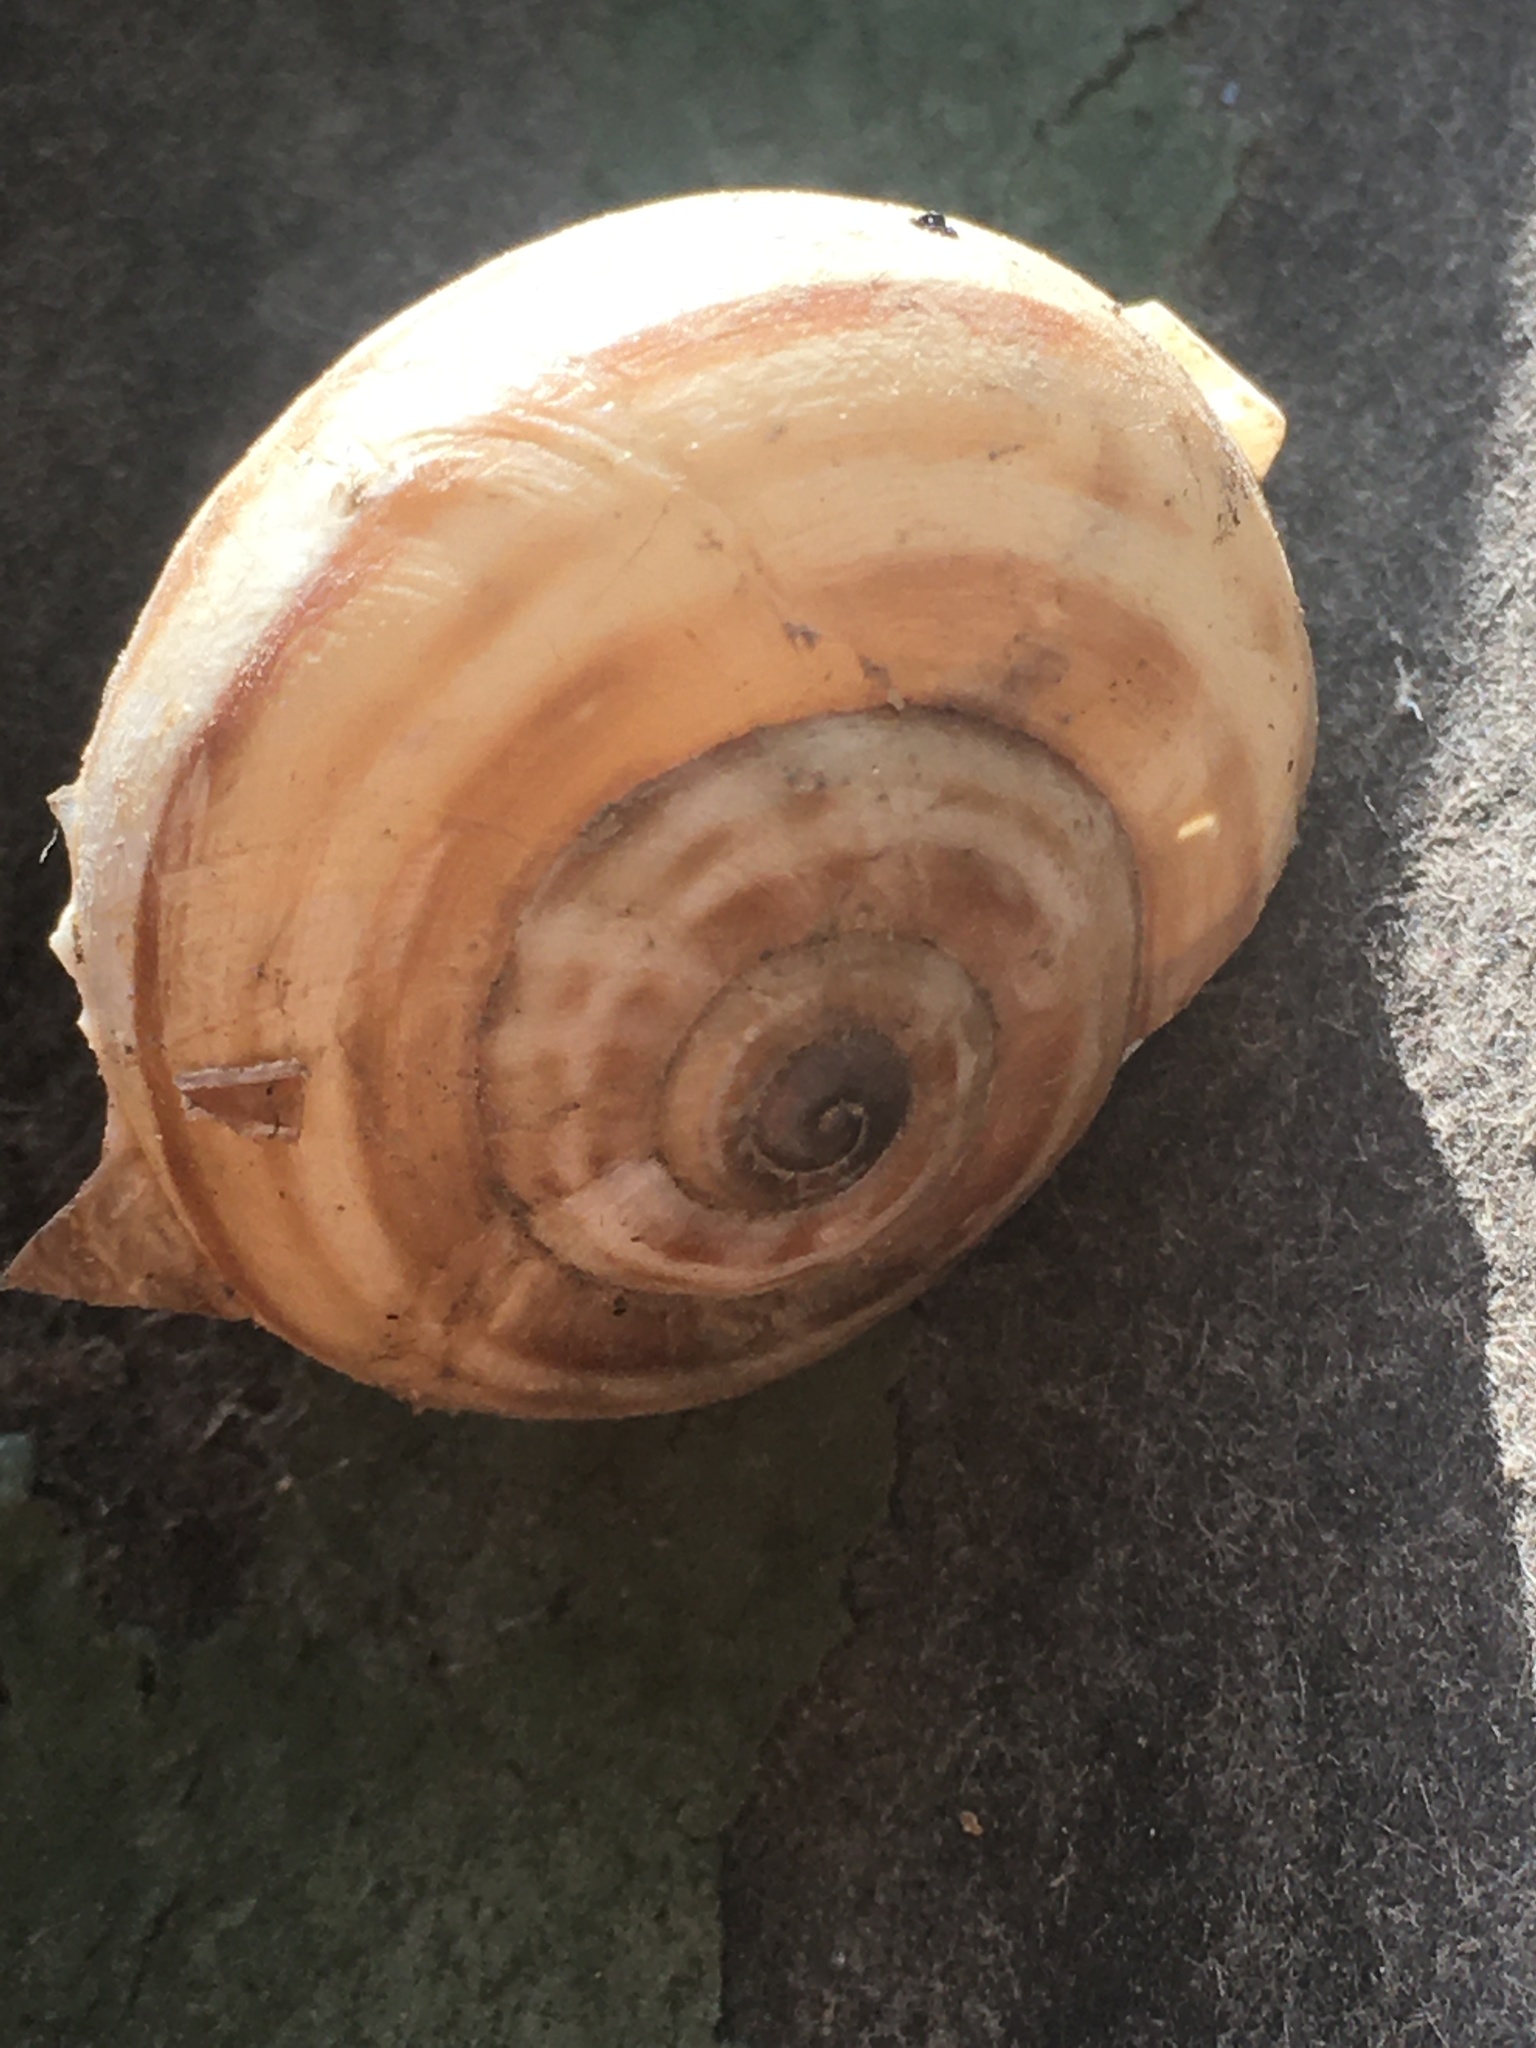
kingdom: Animalia
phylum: Mollusca
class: Gastropoda
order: Stylommatophora
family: Helicidae
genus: Eobania
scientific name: Eobania vermiculata
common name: Chocolateband snail
